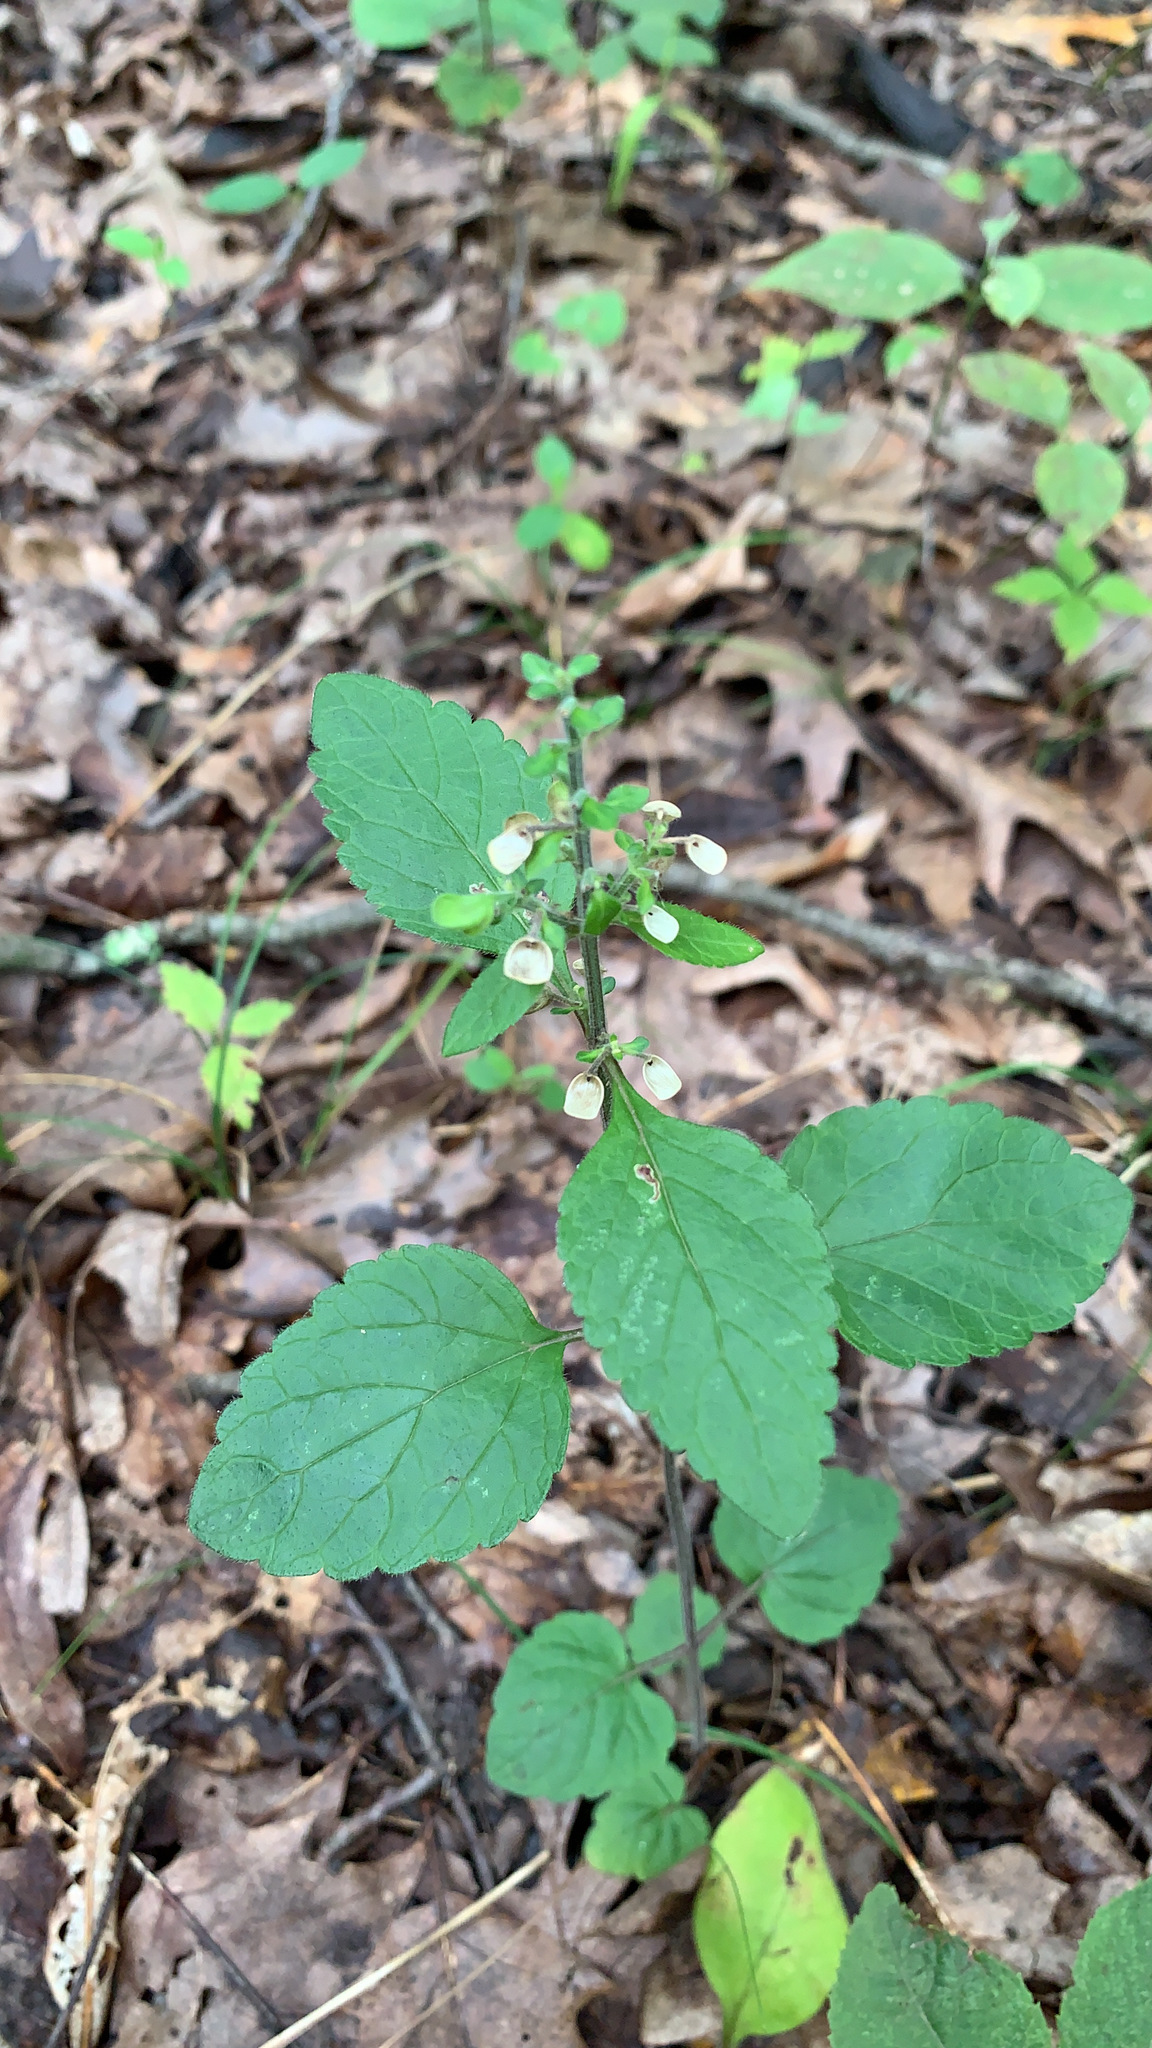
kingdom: Plantae
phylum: Tracheophyta
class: Magnoliopsida
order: Lamiales
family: Lamiaceae
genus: Scutellaria
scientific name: Scutellaria elliptica
